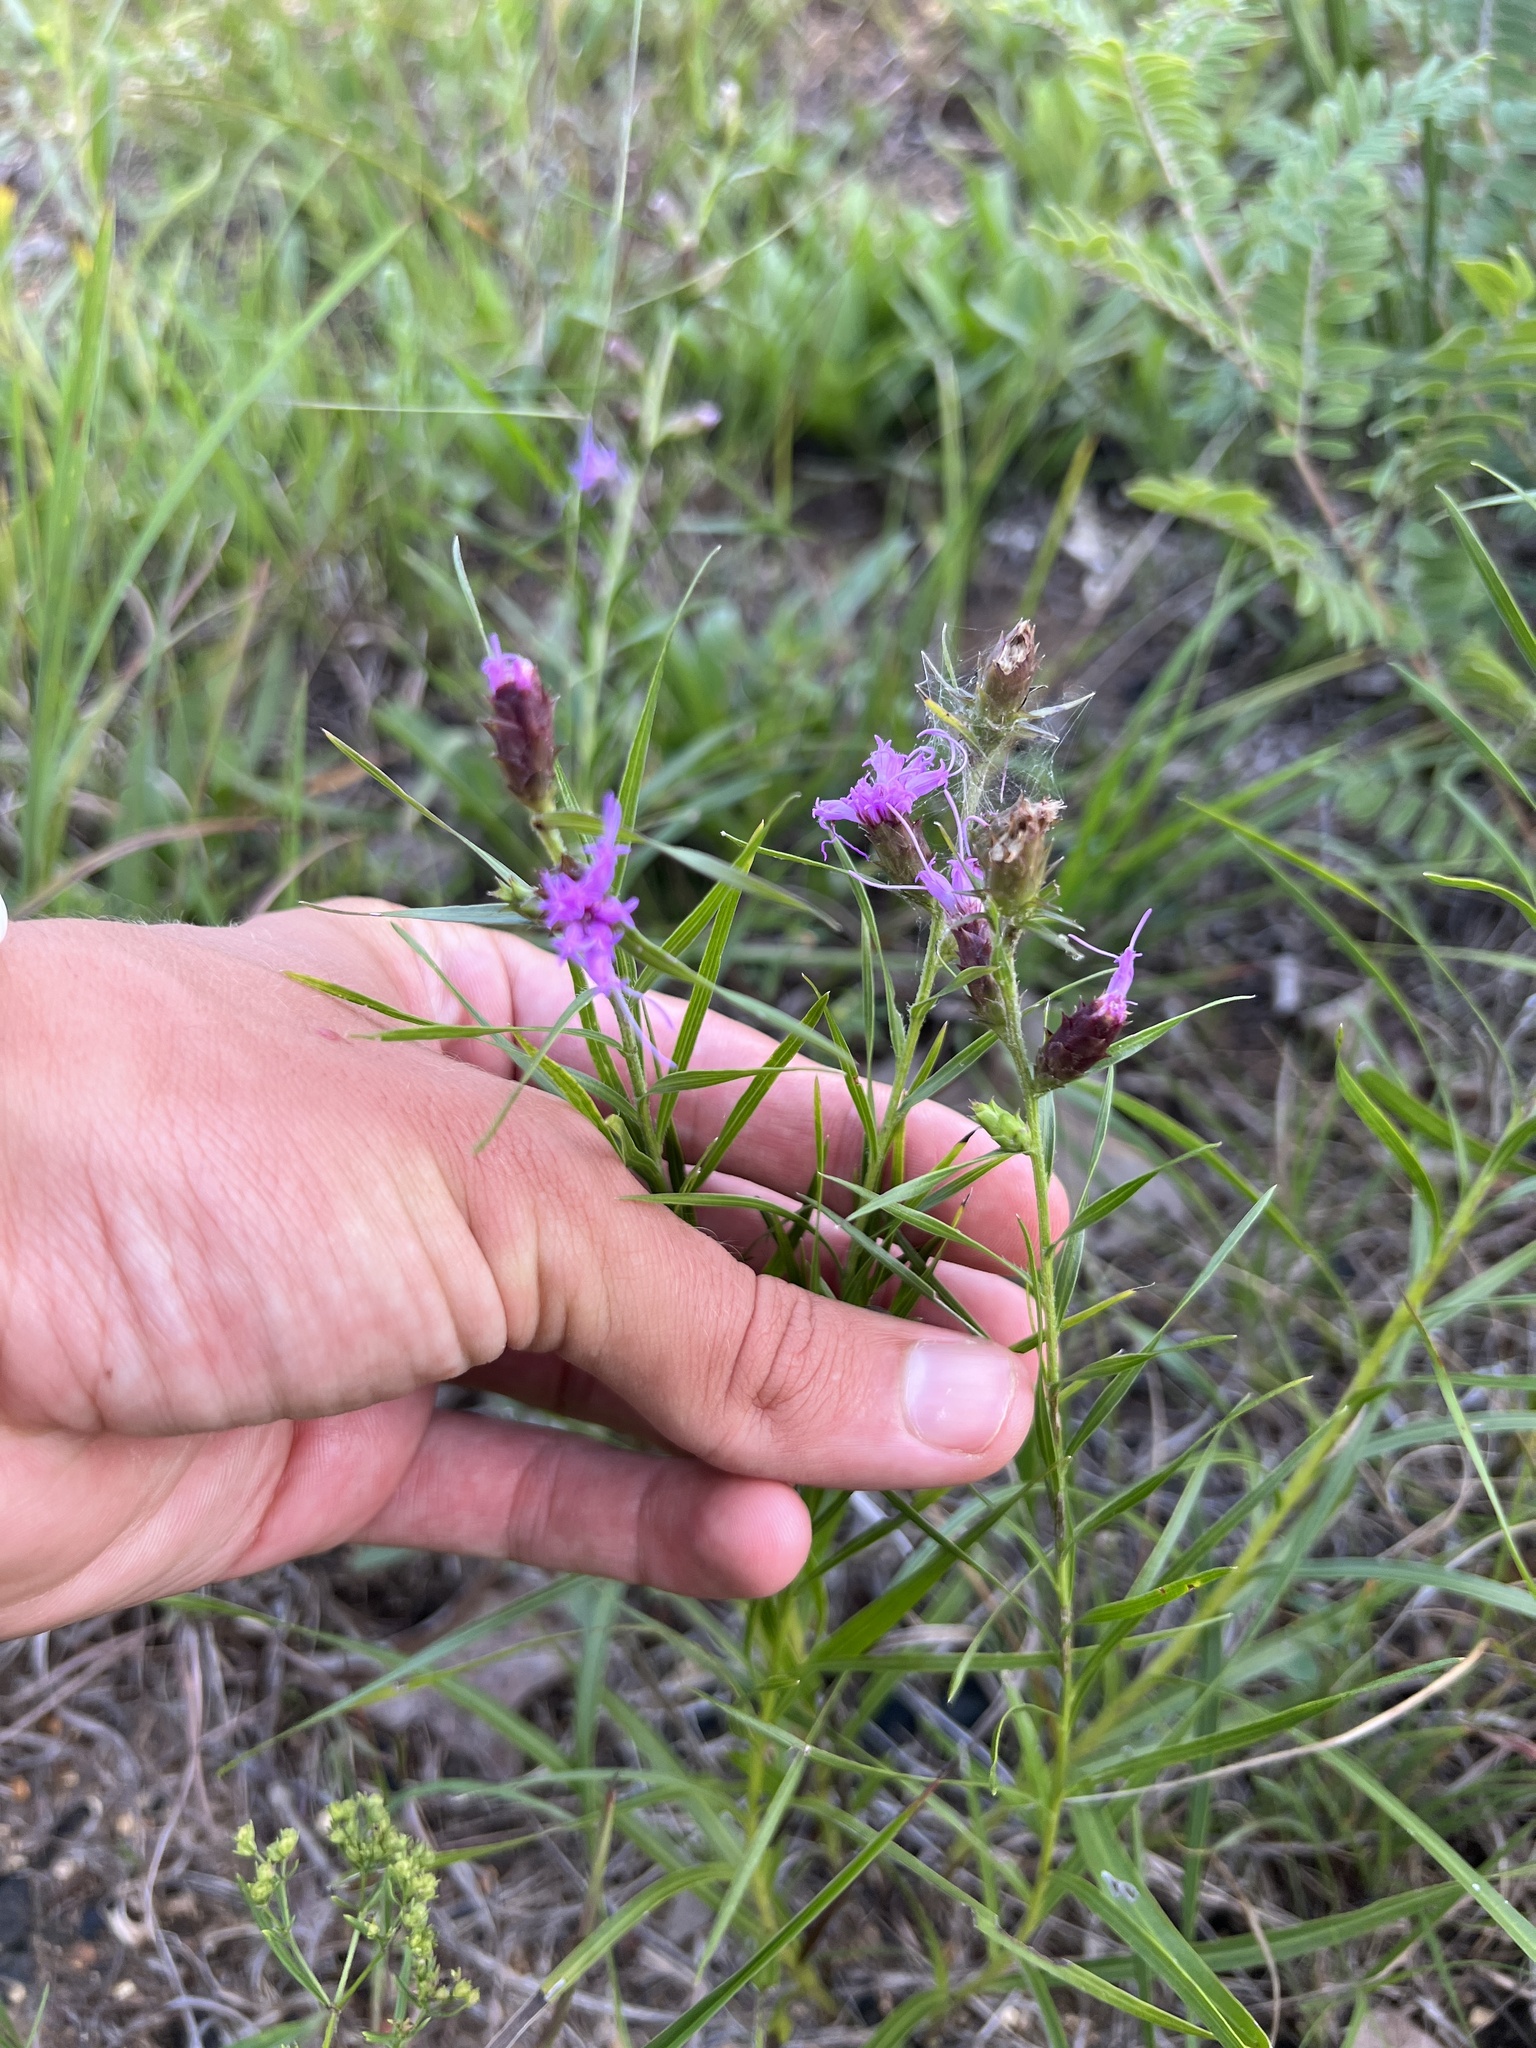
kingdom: Plantae
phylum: Tracheophyta
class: Magnoliopsida
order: Asterales
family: Asteraceae
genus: Liatris
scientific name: Liatris cylindracea
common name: Few-head blazingstar
